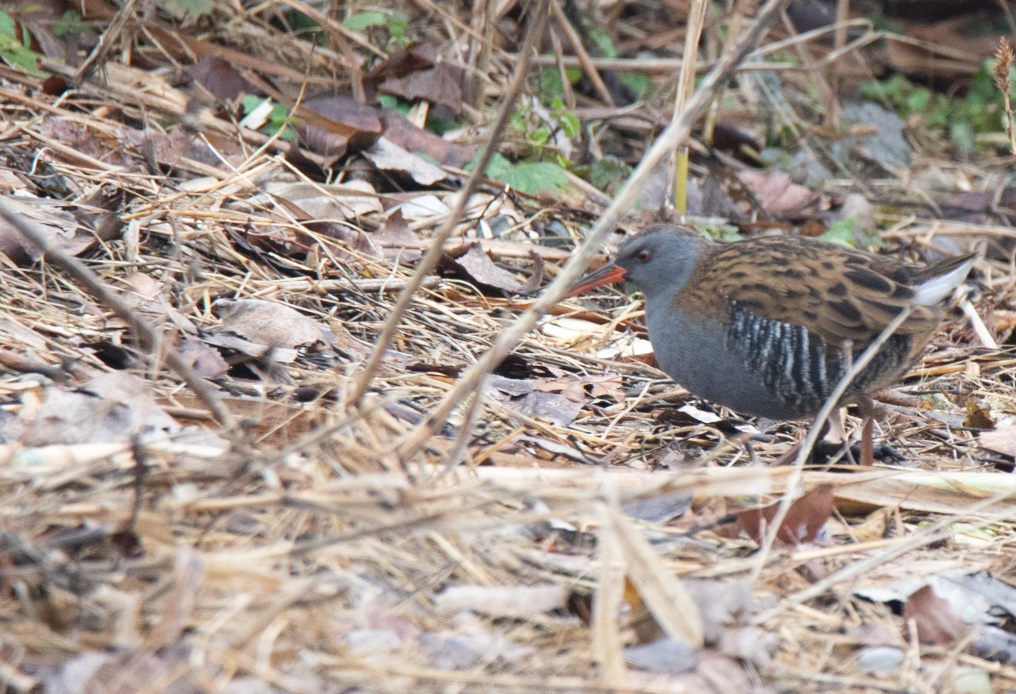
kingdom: Animalia
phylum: Chordata
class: Aves
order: Gruiformes
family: Rallidae
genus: Rallus
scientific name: Rallus aquaticus
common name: Water rail
